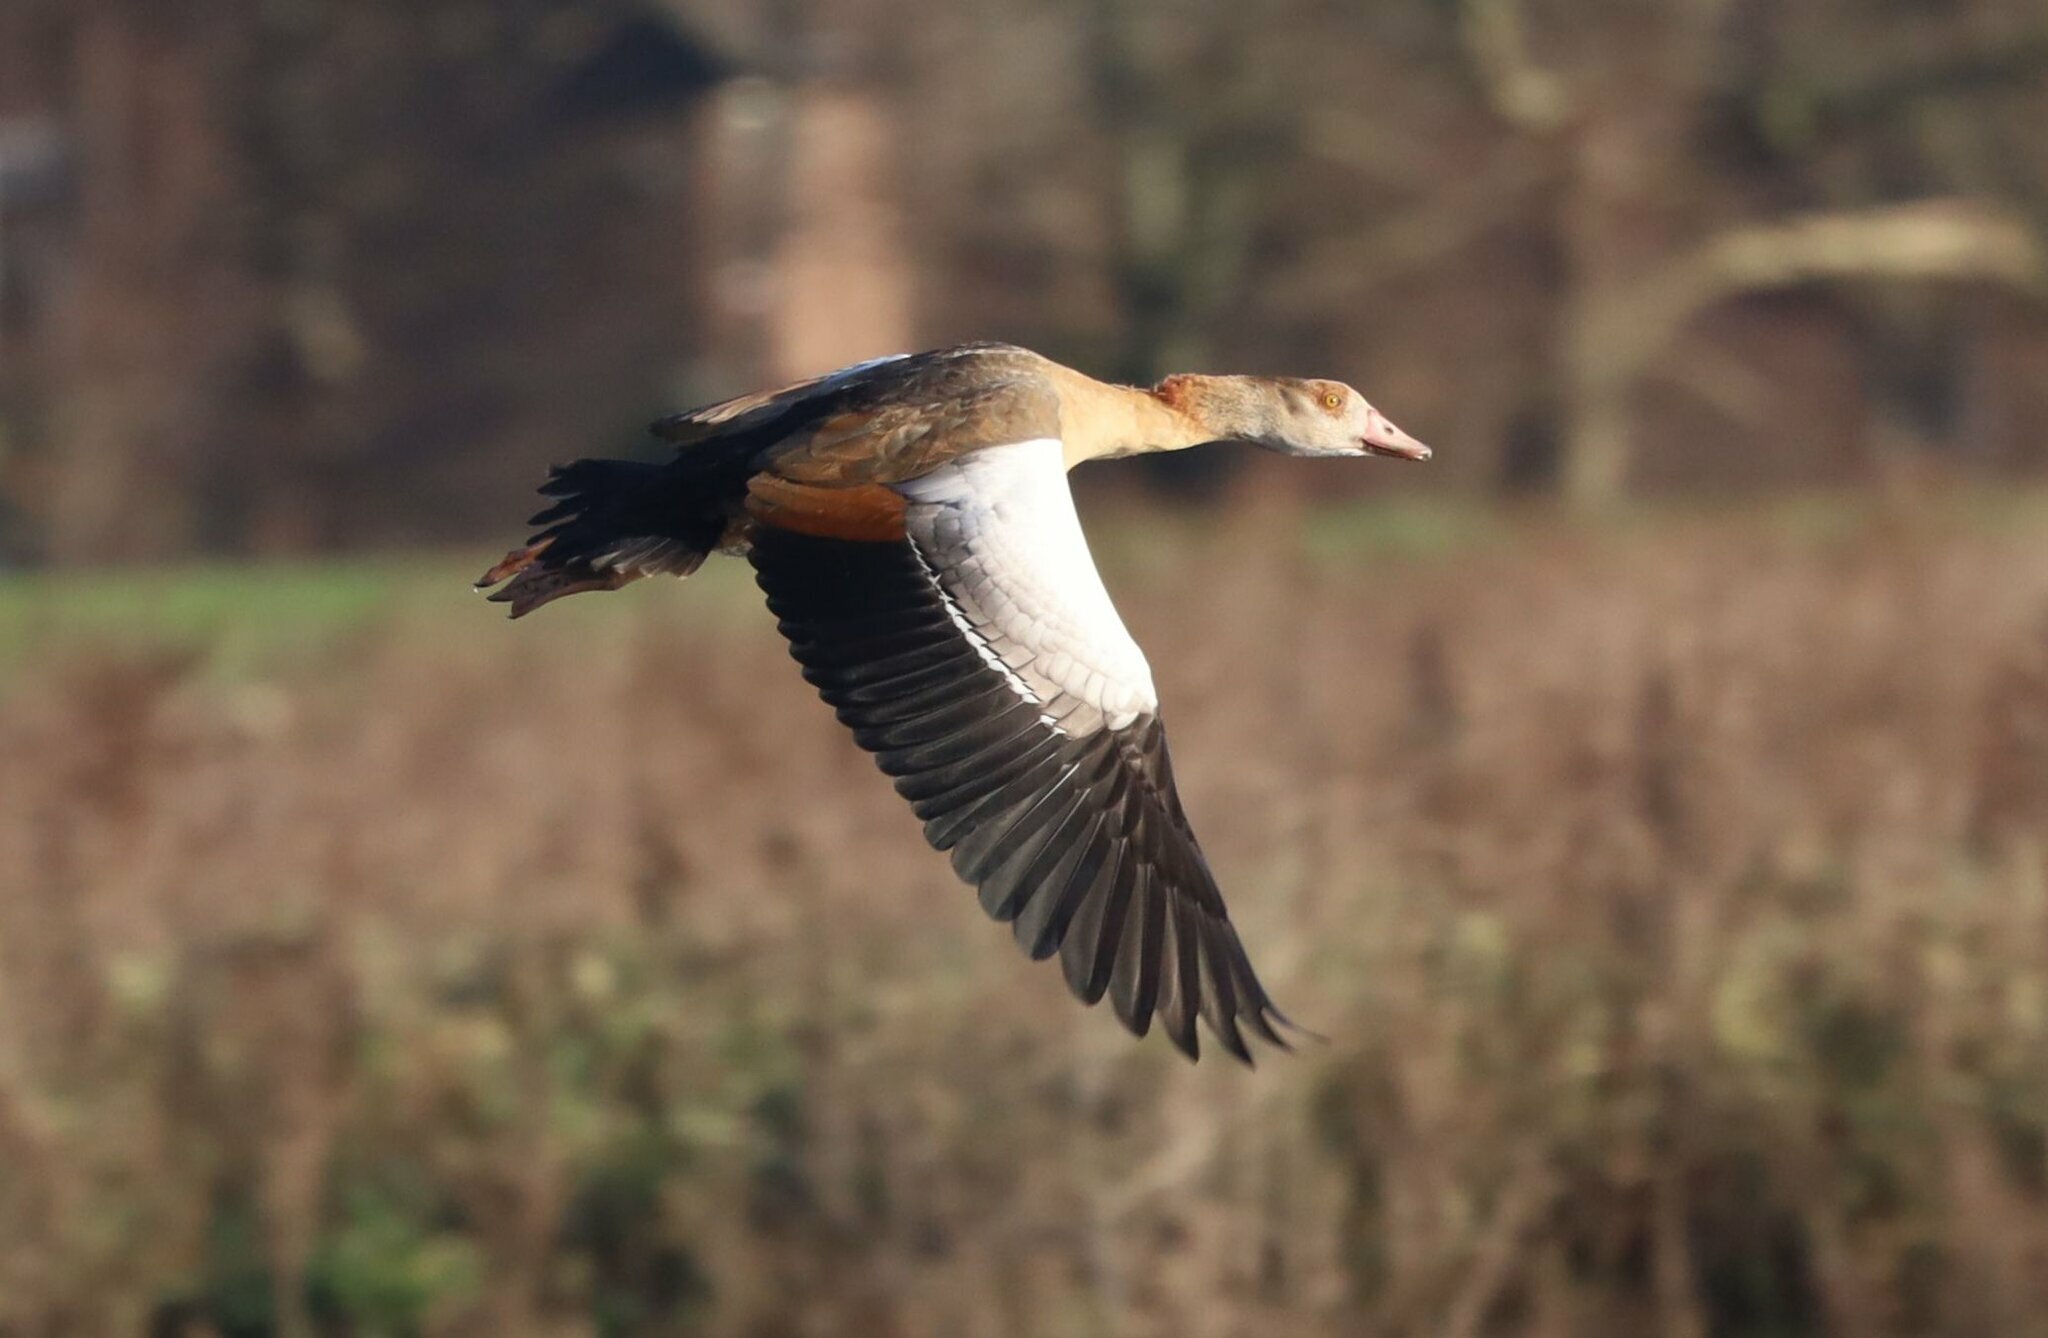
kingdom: Animalia
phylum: Chordata
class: Aves
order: Anseriformes
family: Anatidae
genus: Alopochen
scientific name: Alopochen aegyptiaca
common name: Egyptian goose
